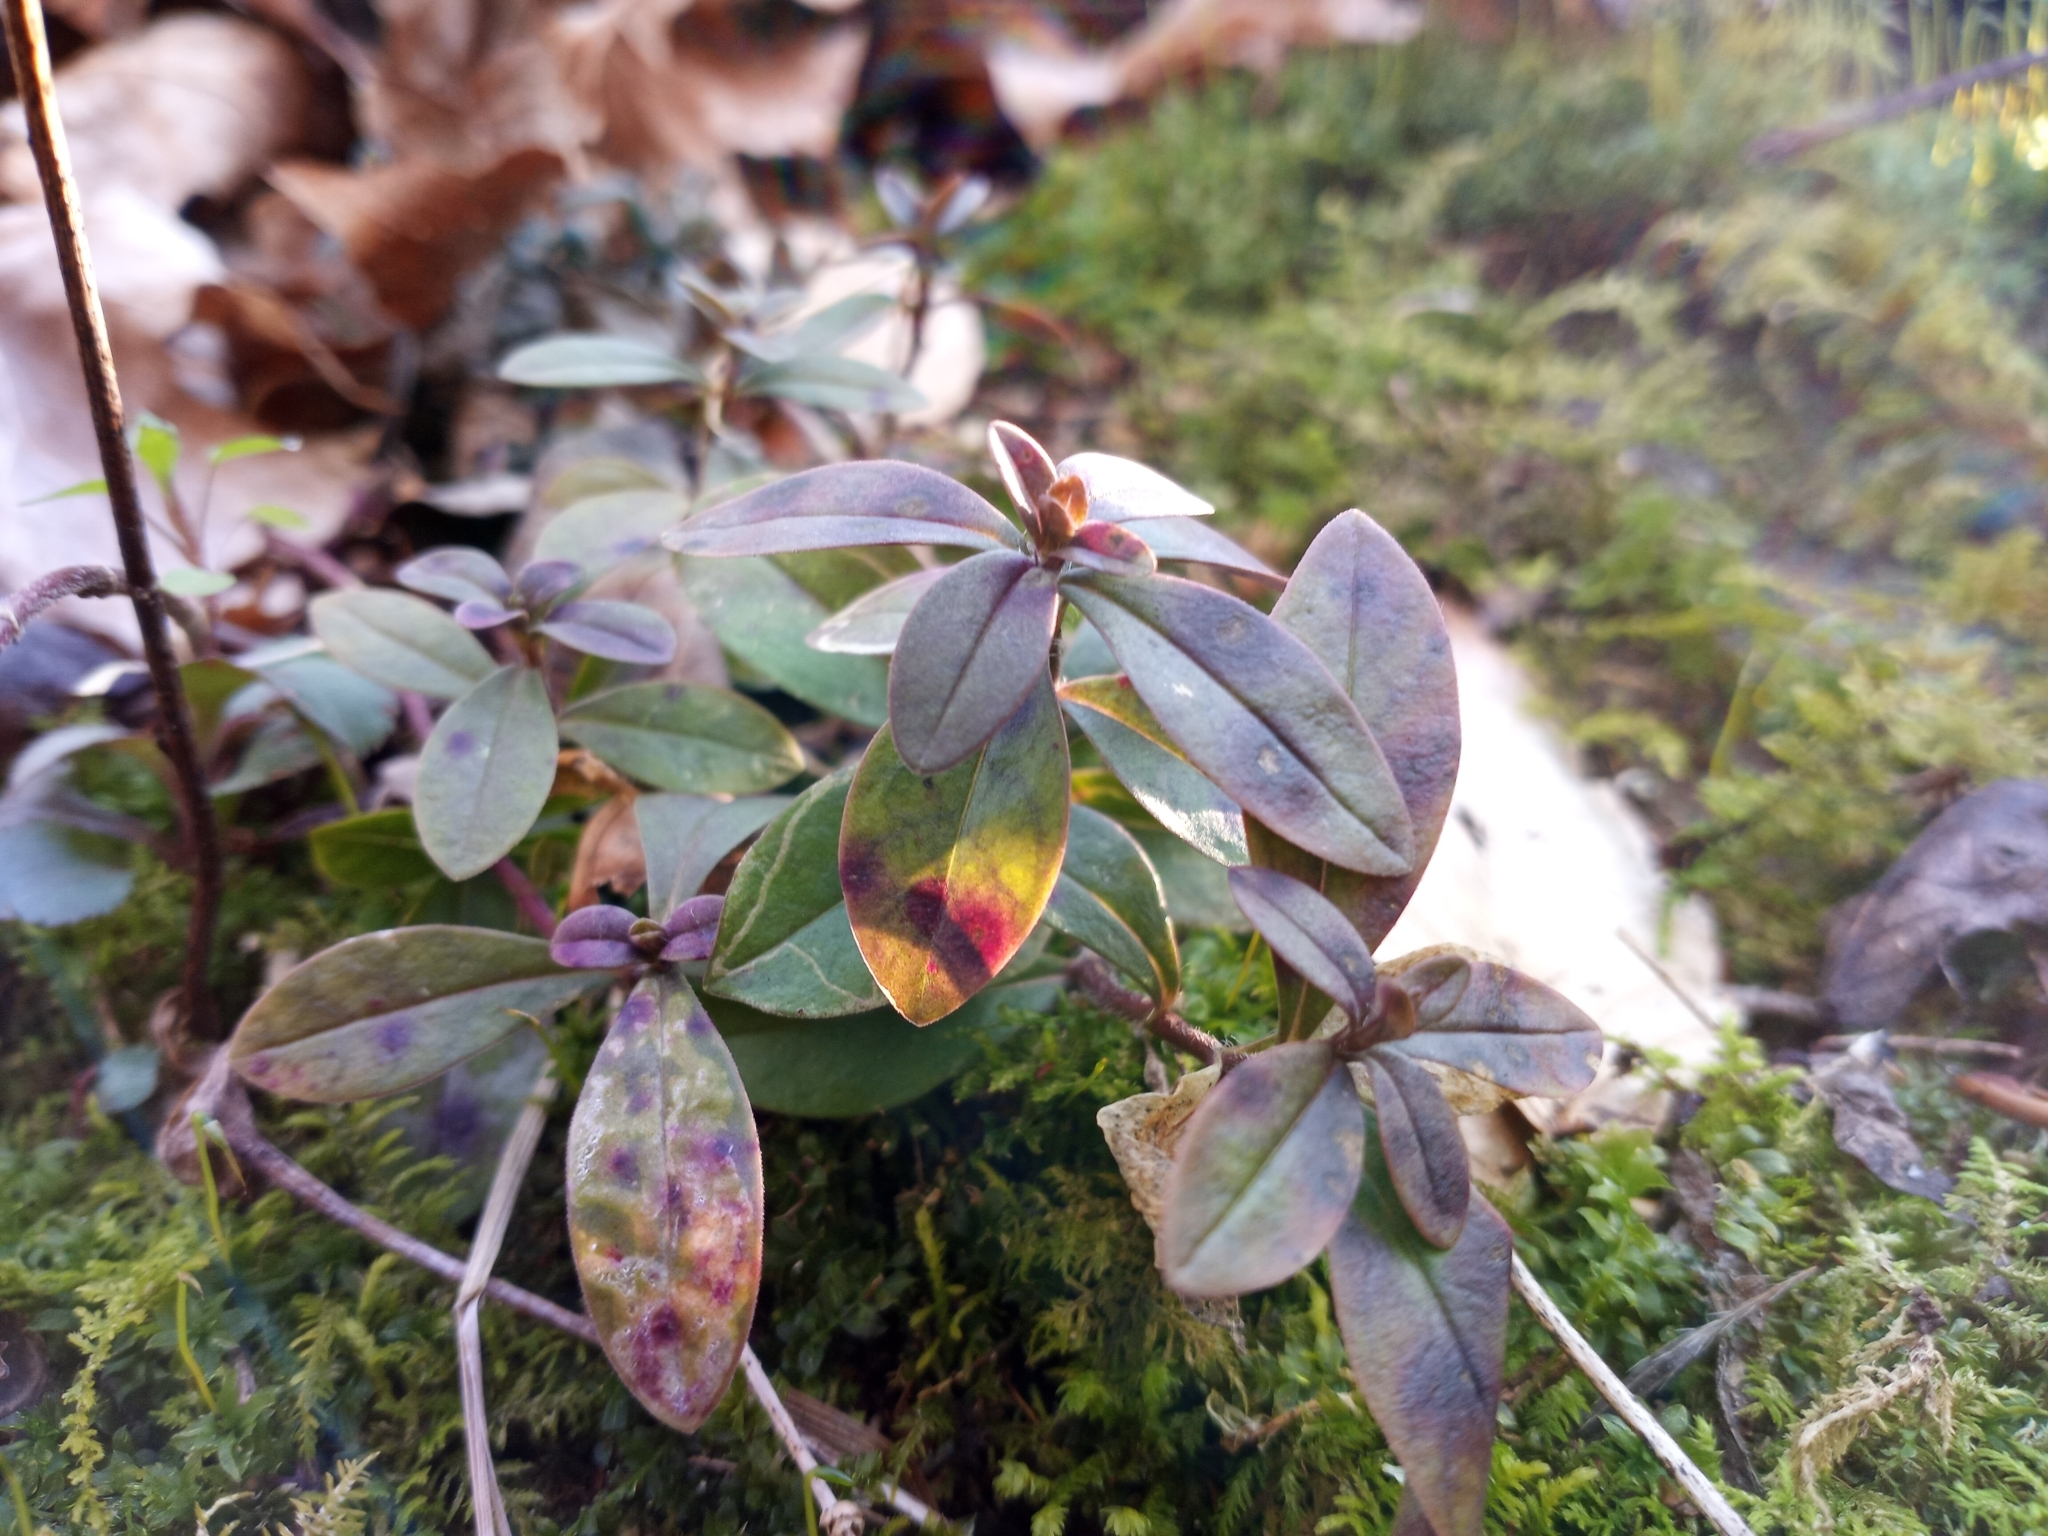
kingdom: Plantae
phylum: Tracheophyta
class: Magnoliopsida
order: Ericales
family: Polemoniaceae
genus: Phlox
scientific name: Phlox divaricata
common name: Blue phlox
